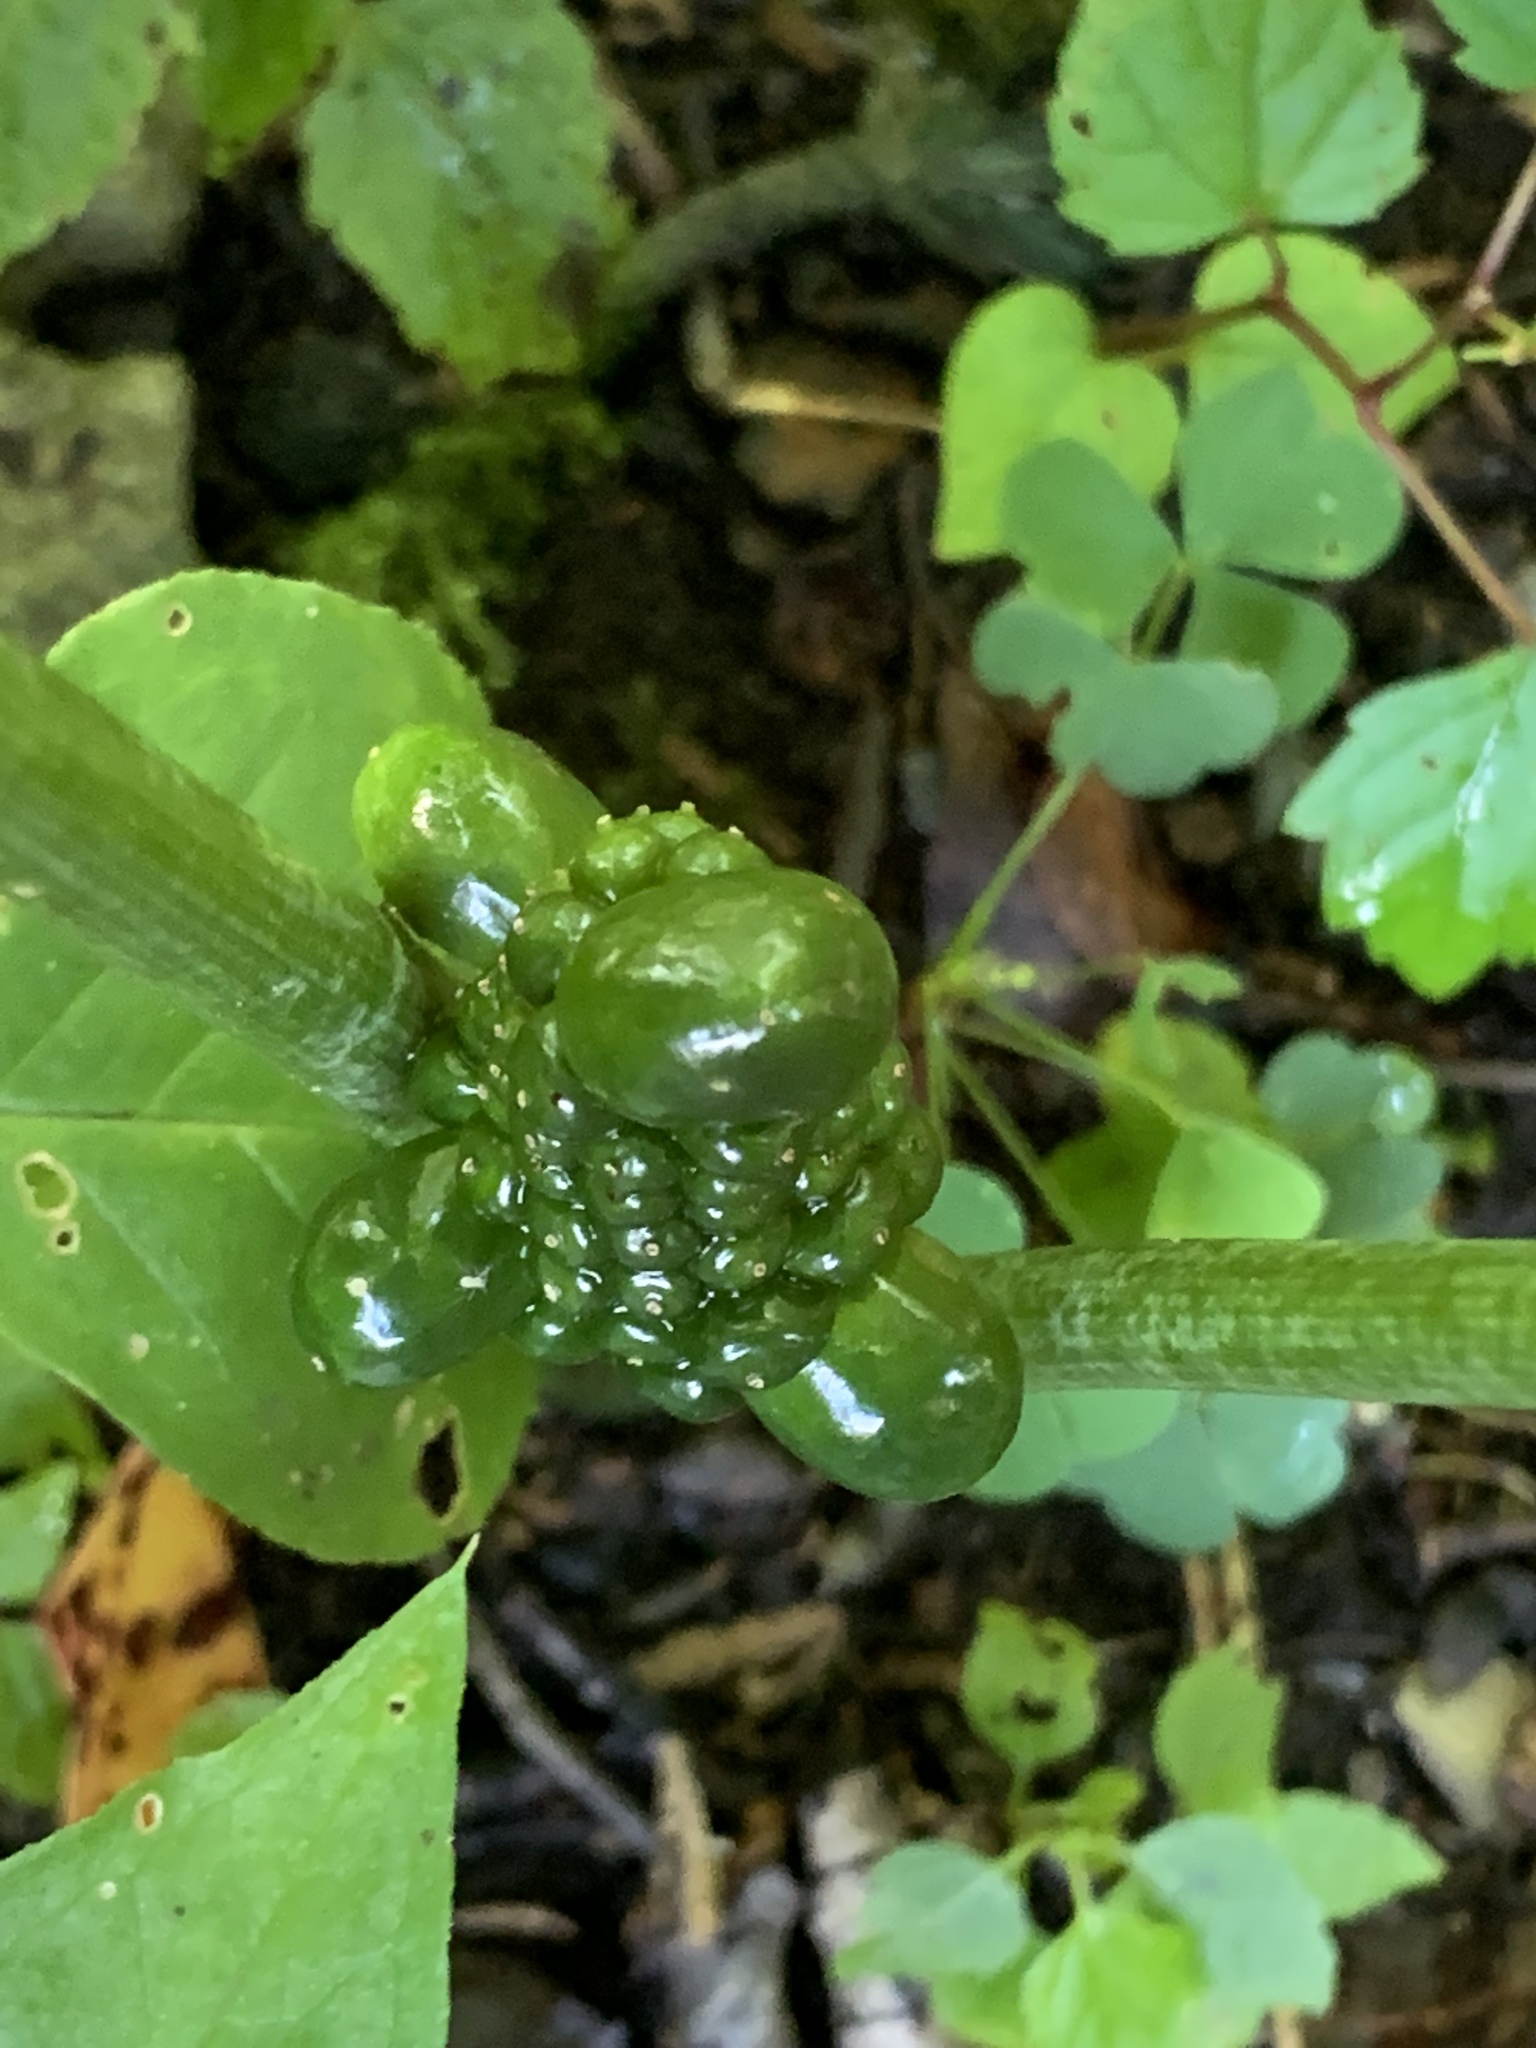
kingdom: Plantae
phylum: Tracheophyta
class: Liliopsida
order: Alismatales
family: Araceae
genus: Arisaema
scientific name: Arisaema triphyllum
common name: Jack-in-the-pulpit
